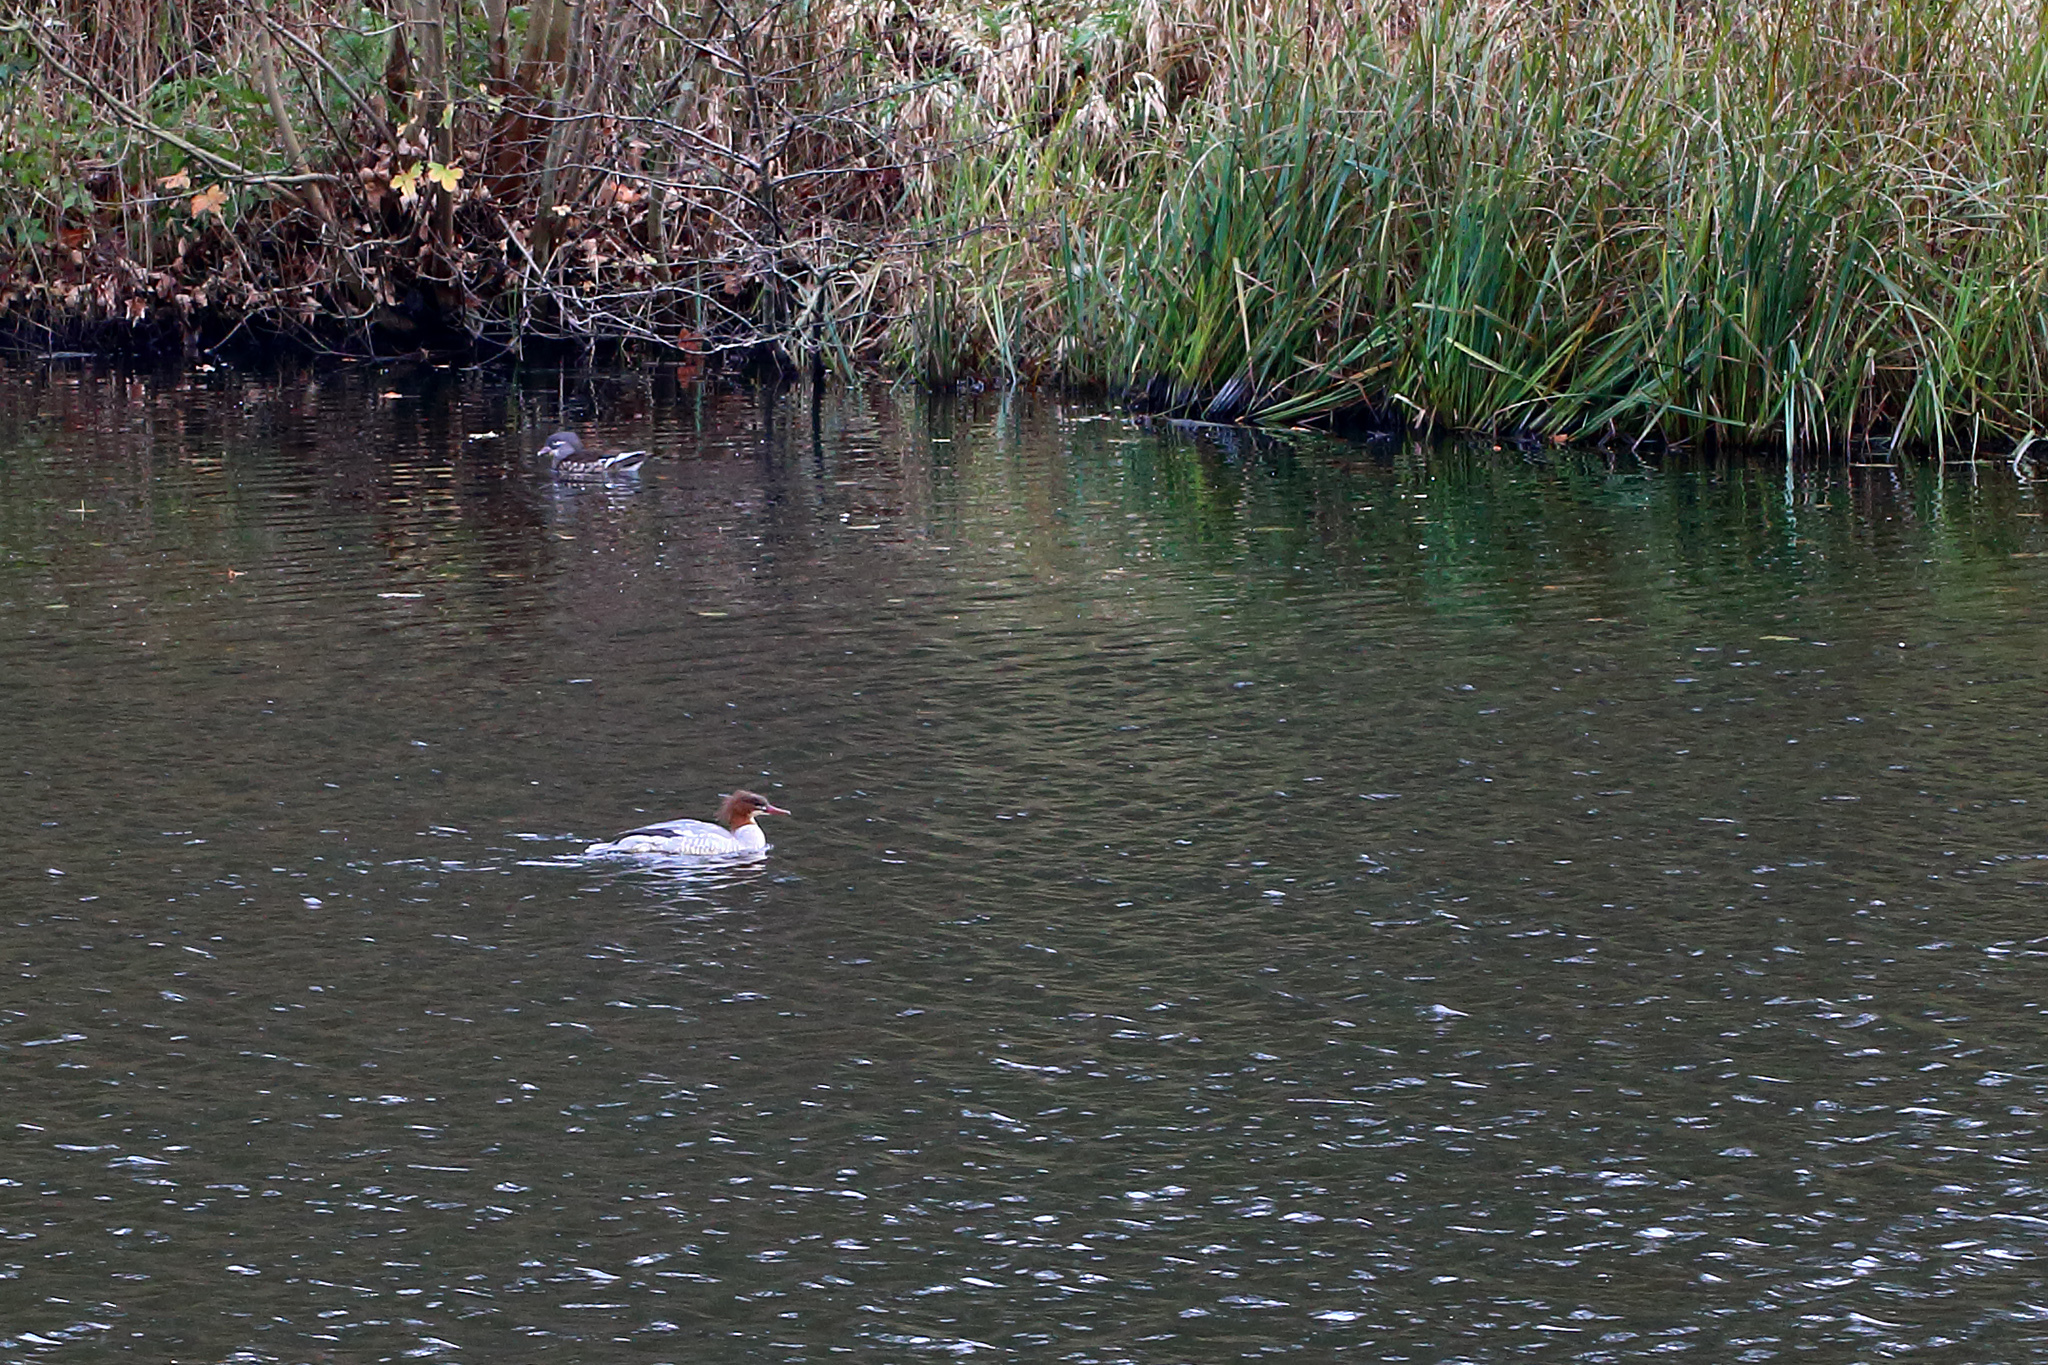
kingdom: Animalia
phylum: Chordata
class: Aves
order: Anseriformes
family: Anatidae
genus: Mergus
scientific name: Mergus merganser
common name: Common merganser
